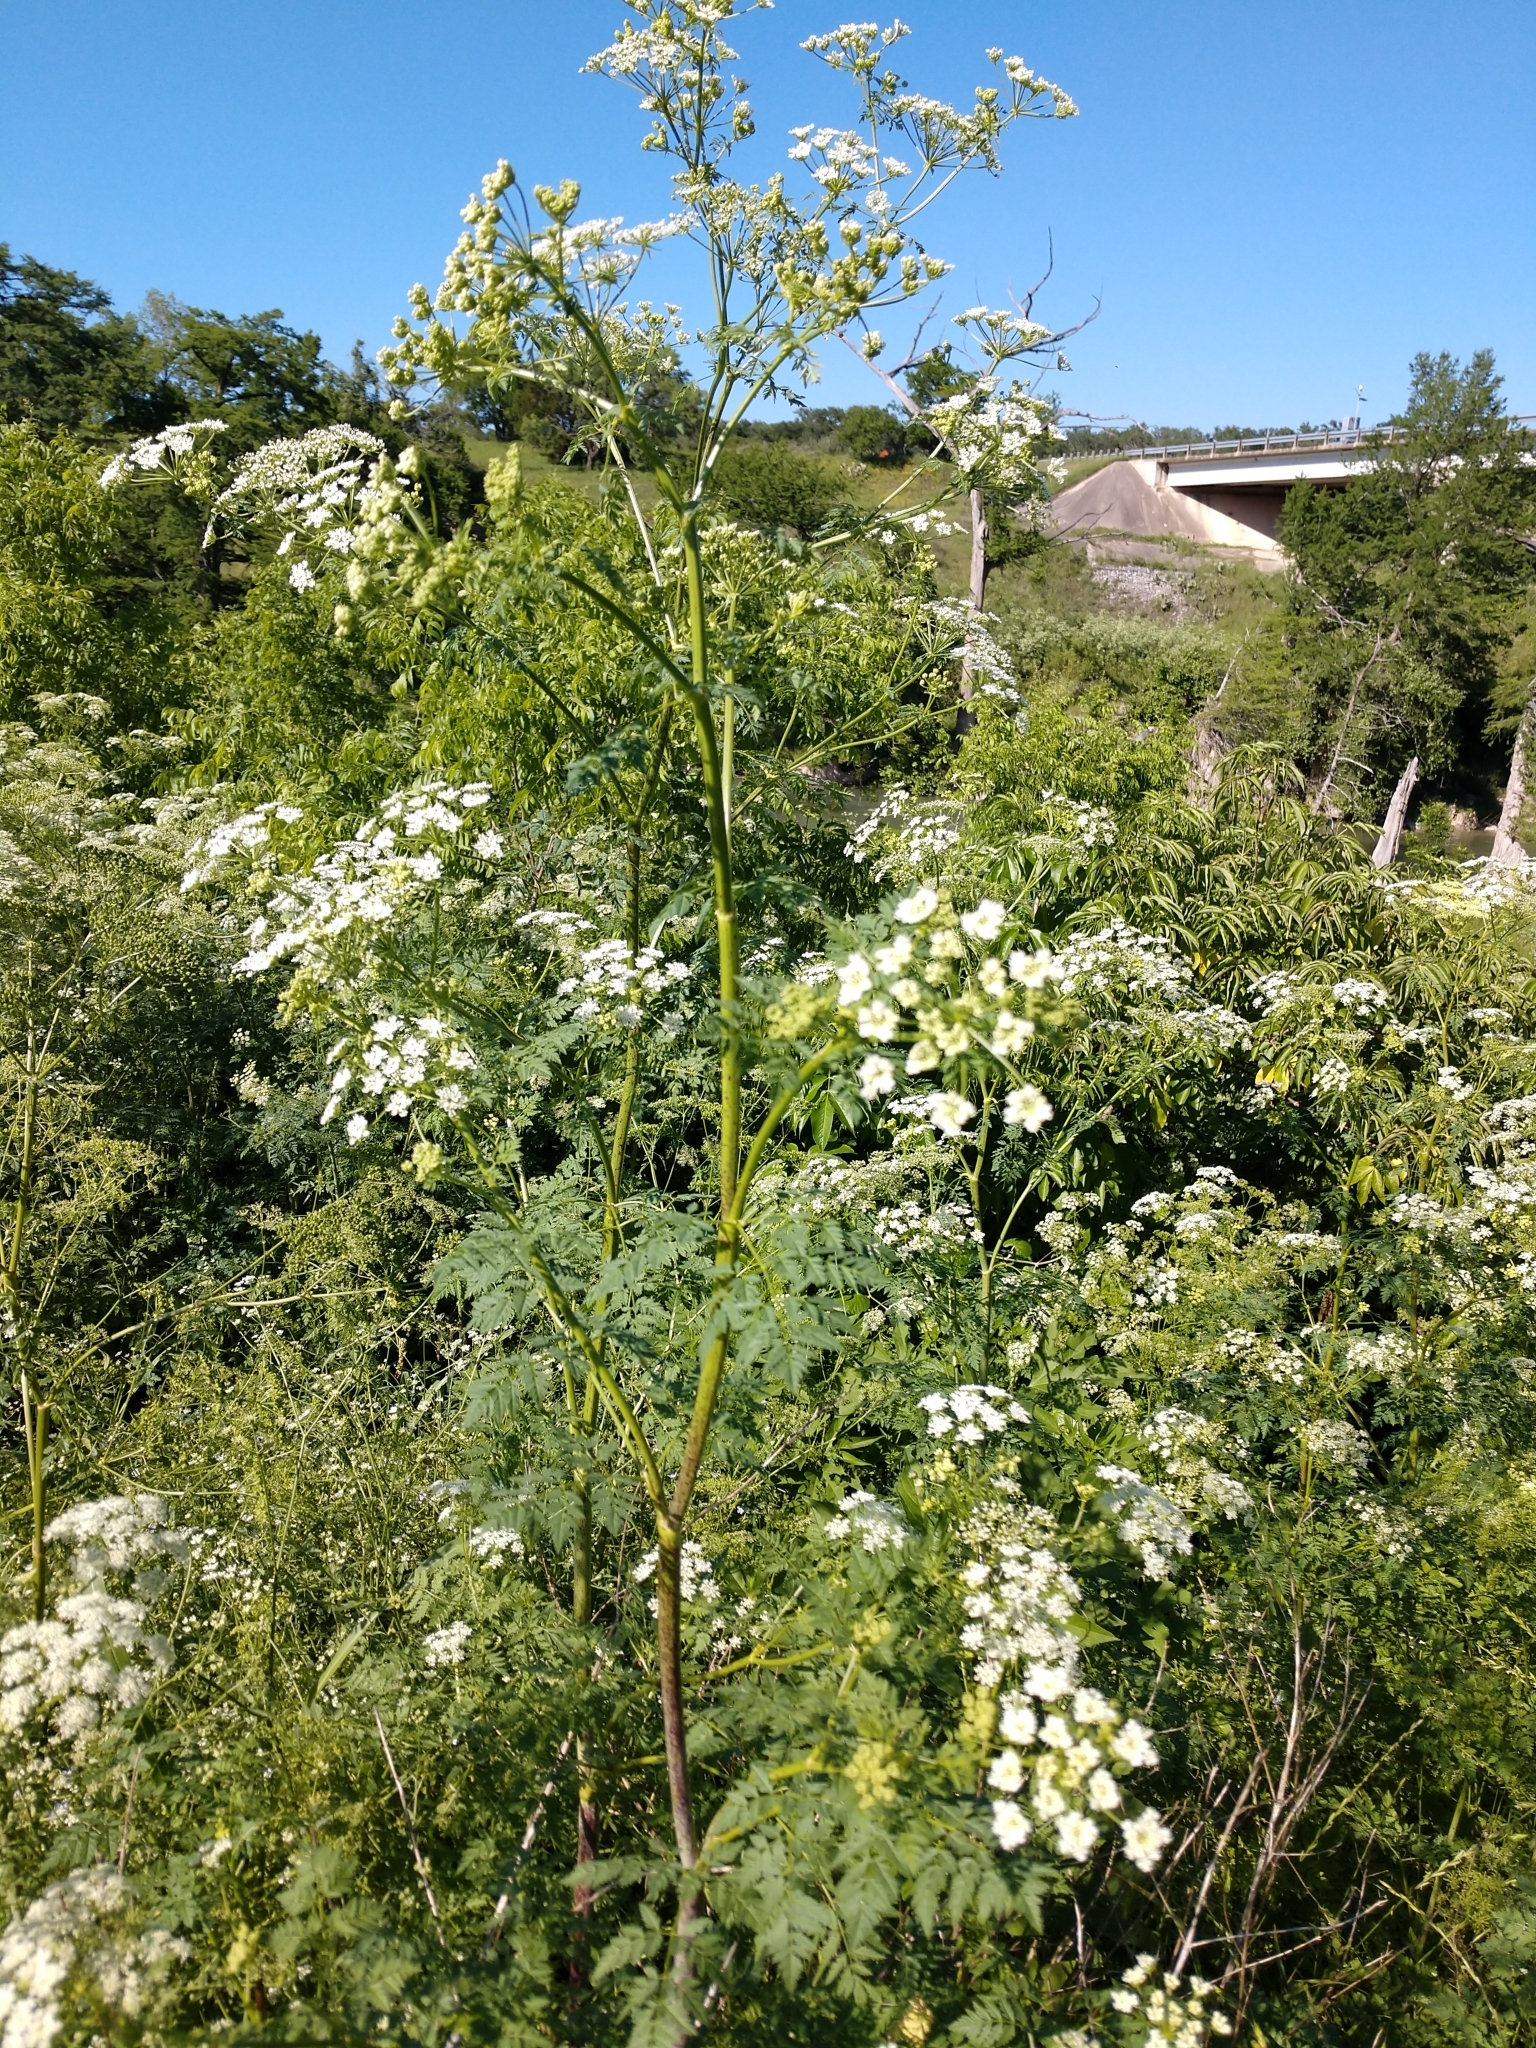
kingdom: Plantae
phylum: Tracheophyta
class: Magnoliopsida
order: Apiales
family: Apiaceae
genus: Conium
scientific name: Conium maculatum
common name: Hemlock
